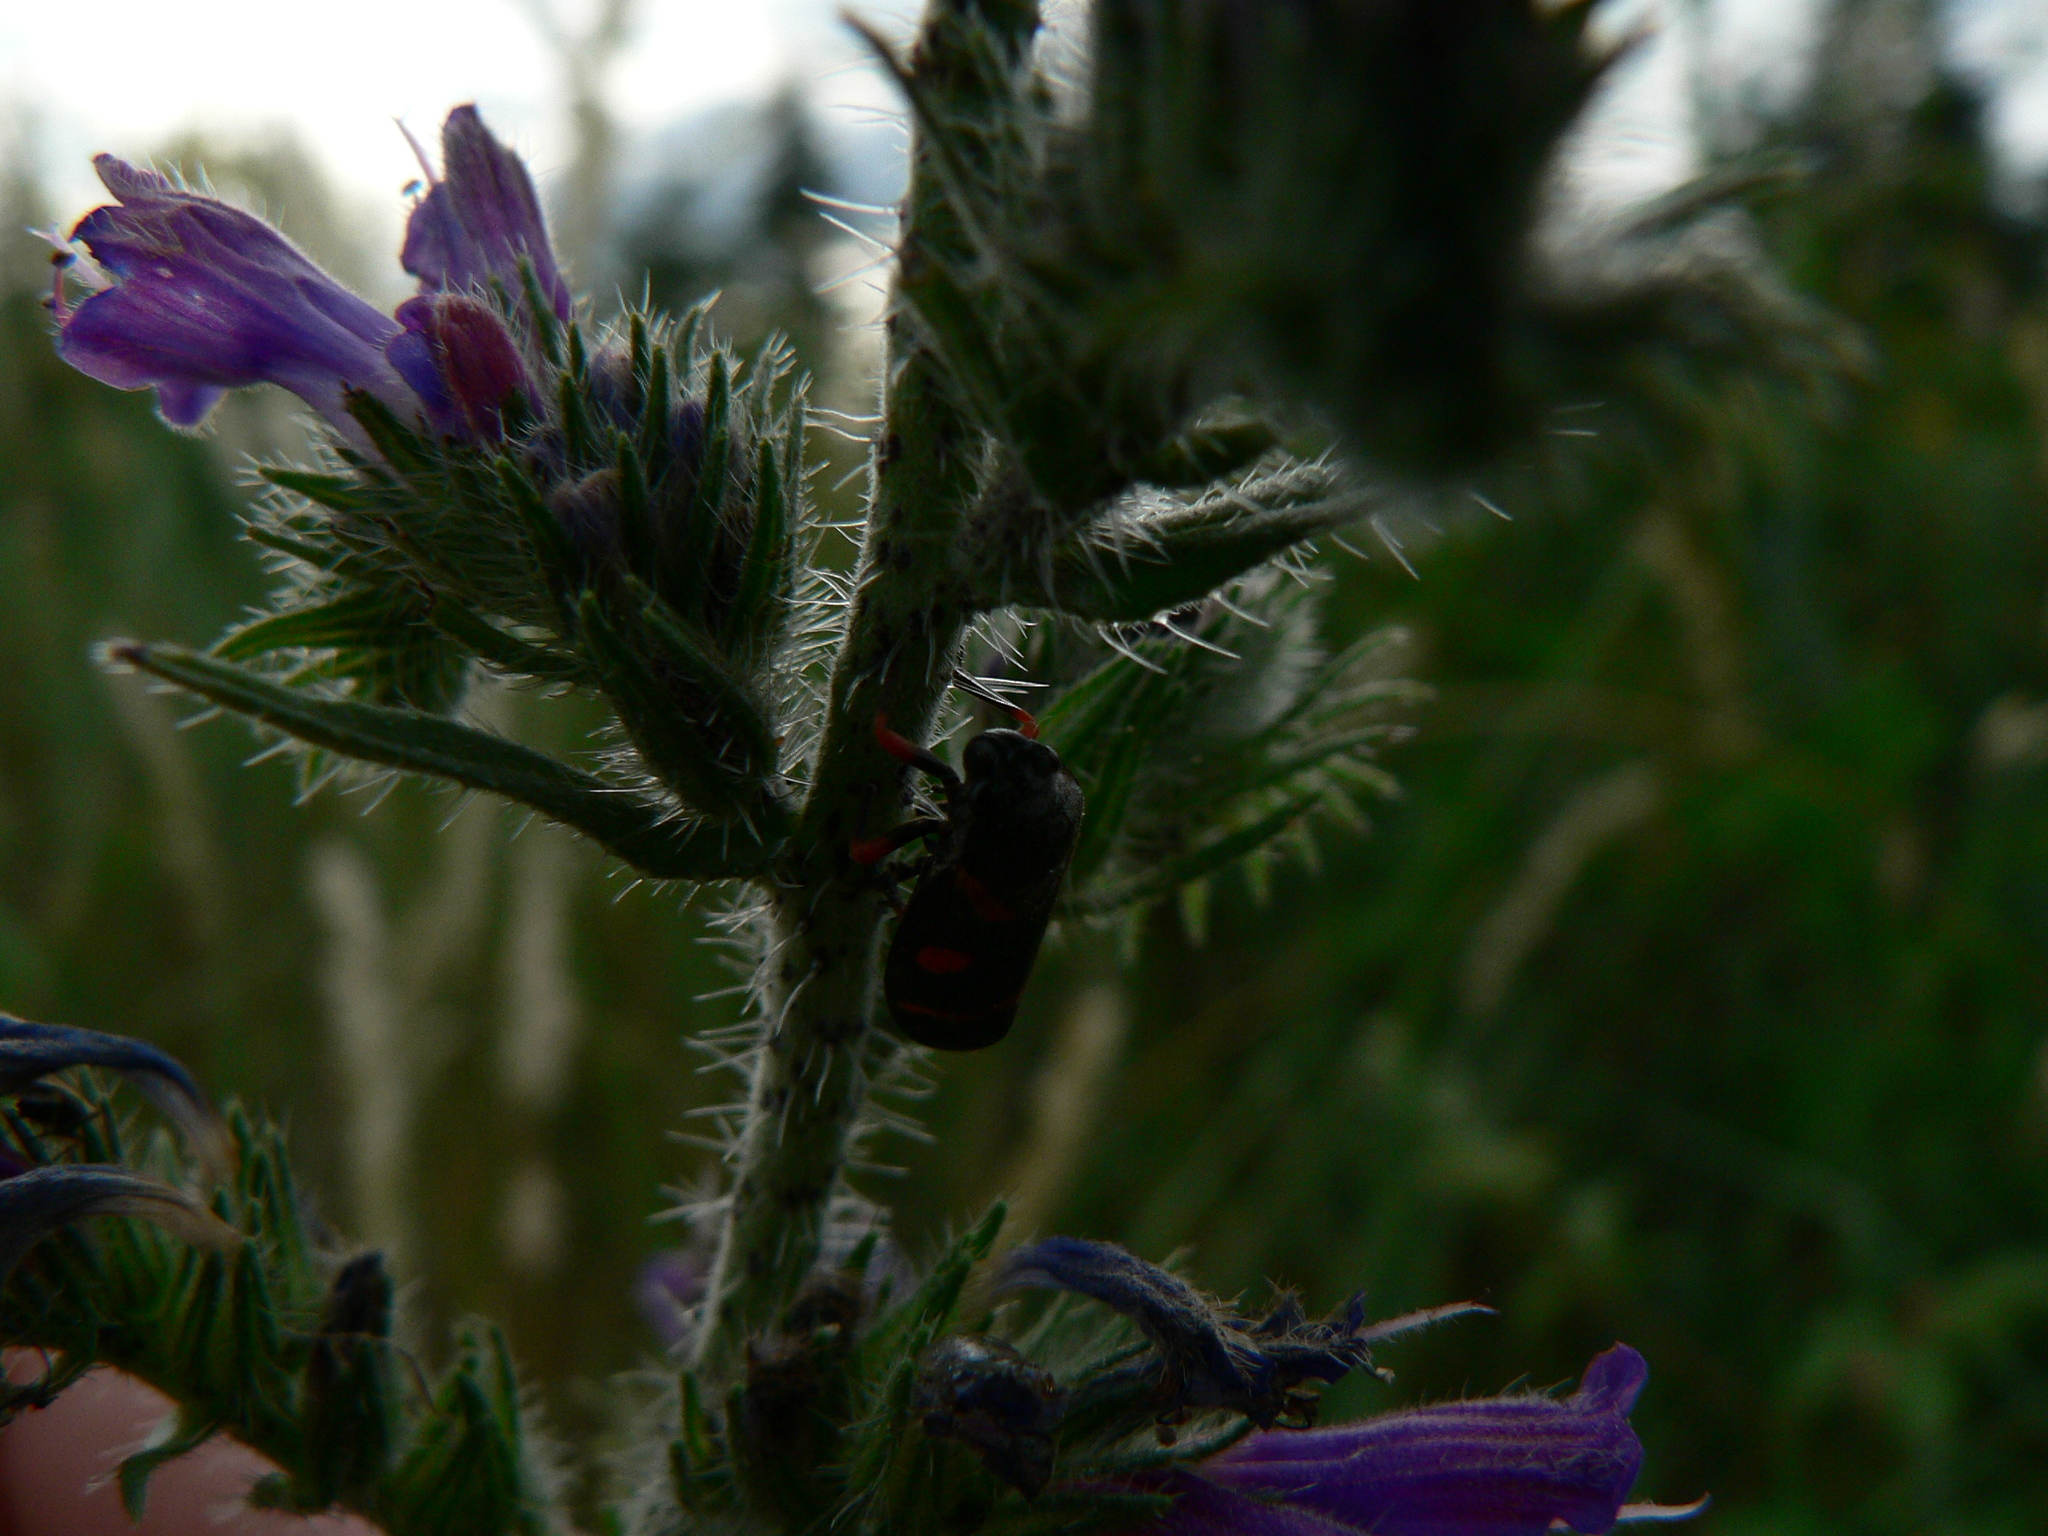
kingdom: Animalia
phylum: Arthropoda
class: Insecta
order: Hemiptera
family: Cercopidae
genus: Cercopis
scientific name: Cercopis intermedia
